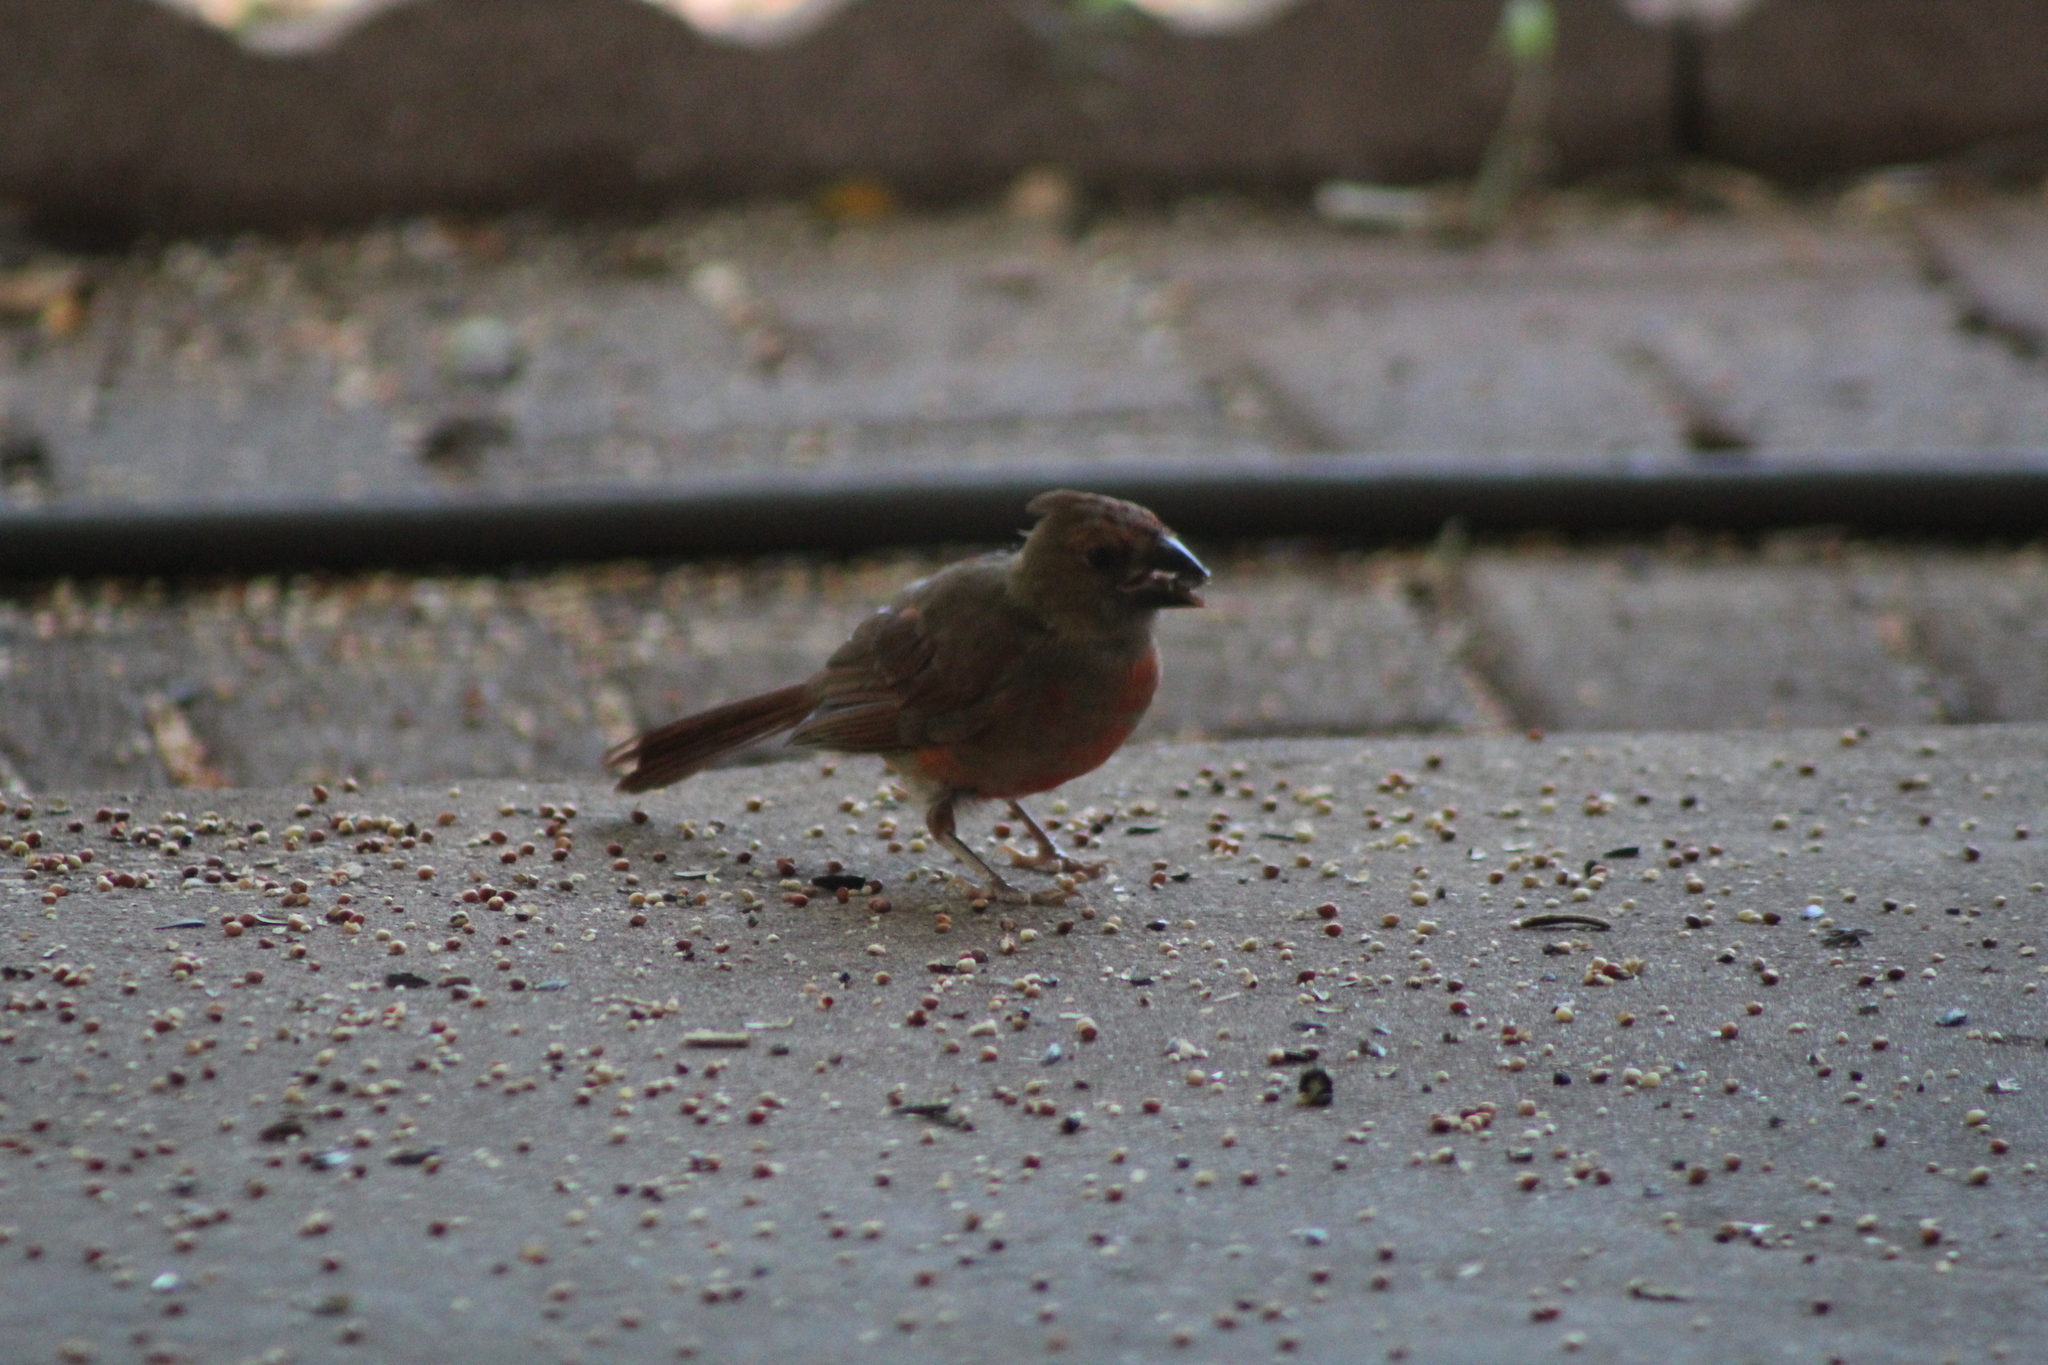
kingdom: Animalia
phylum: Chordata
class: Aves
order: Passeriformes
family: Cardinalidae
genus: Cardinalis
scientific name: Cardinalis cardinalis
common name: Northern cardinal
